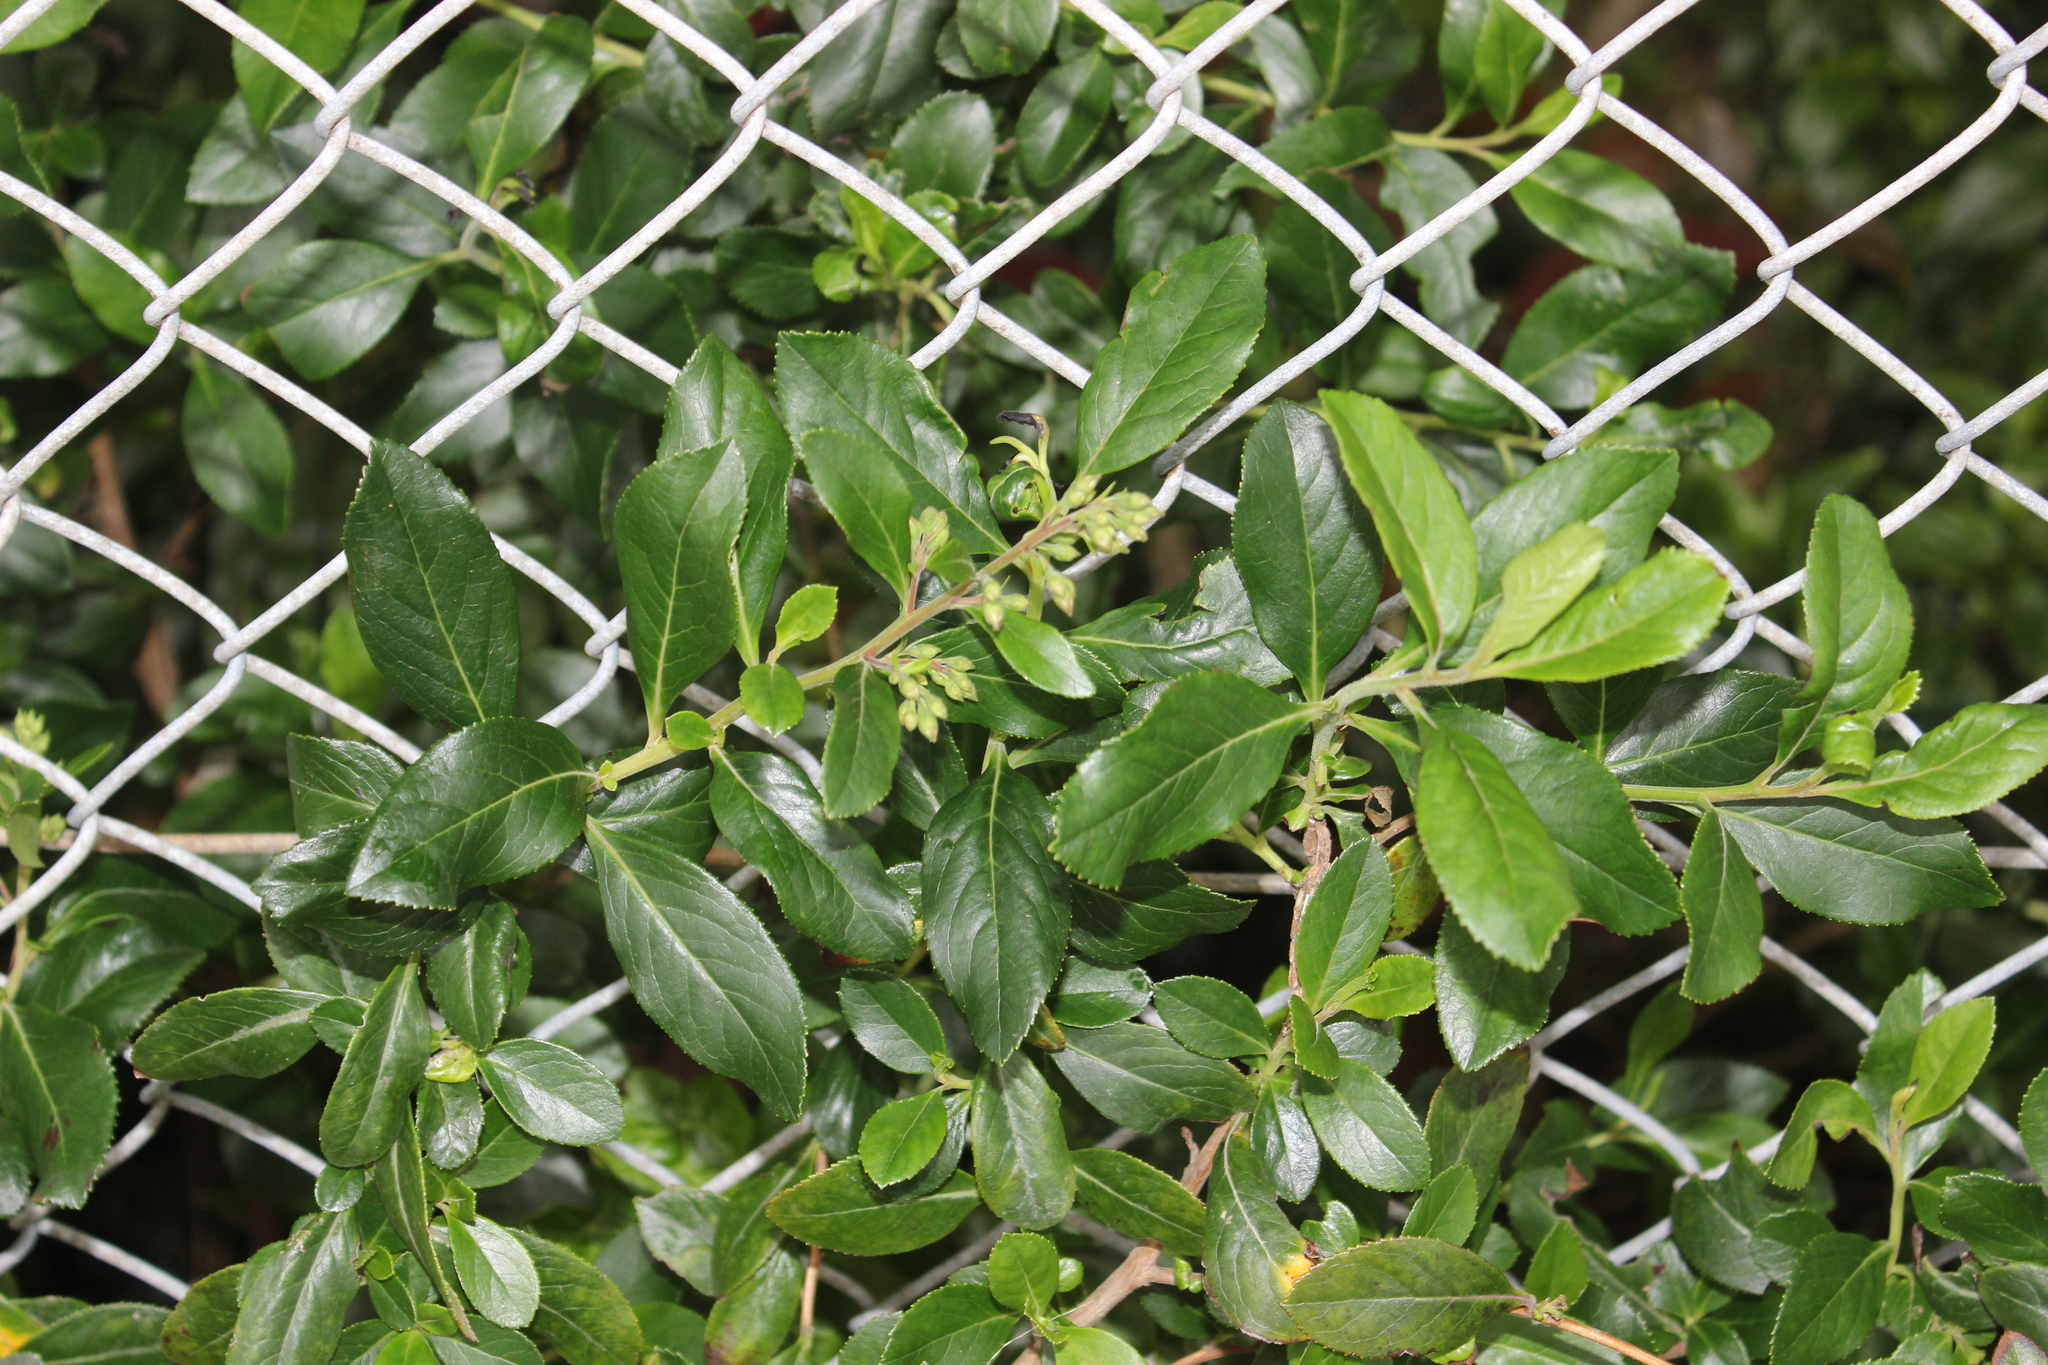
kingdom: Plantae
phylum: Tracheophyta
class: Magnoliopsida
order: Escalloniales
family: Escalloniaceae
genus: Escallonia
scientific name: Escallonia rubra
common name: Redclaws
